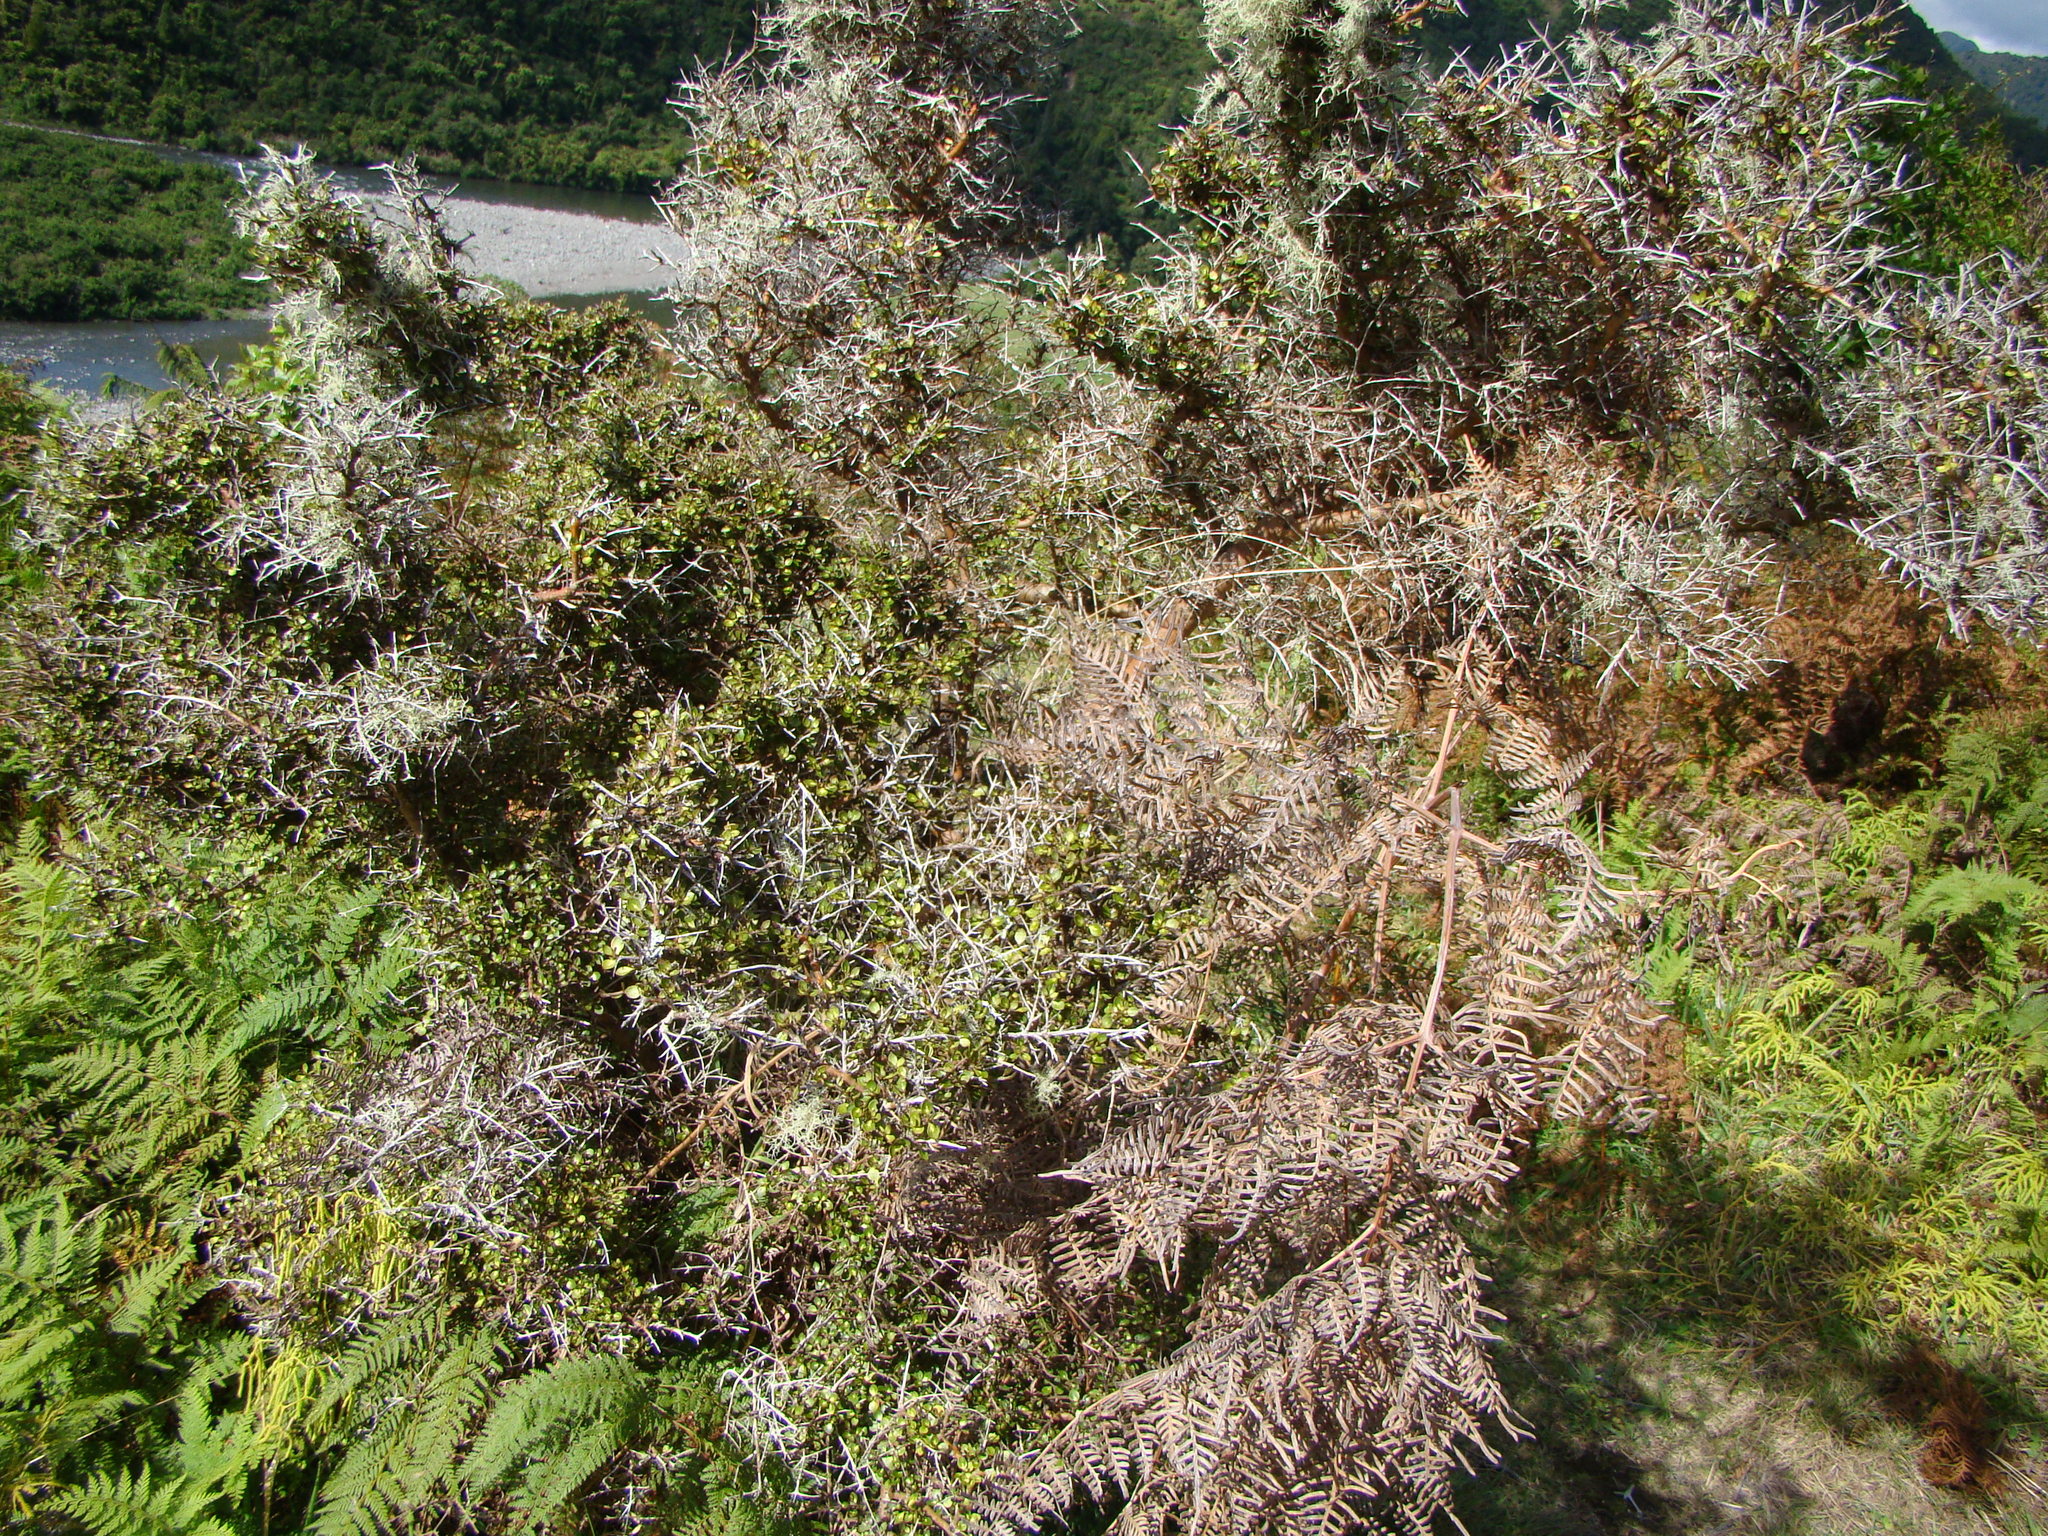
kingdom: Plantae
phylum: Tracheophyta
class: Magnoliopsida
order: Gentianales
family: Rubiaceae
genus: Coprosma
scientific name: Coprosma rhamnoides
